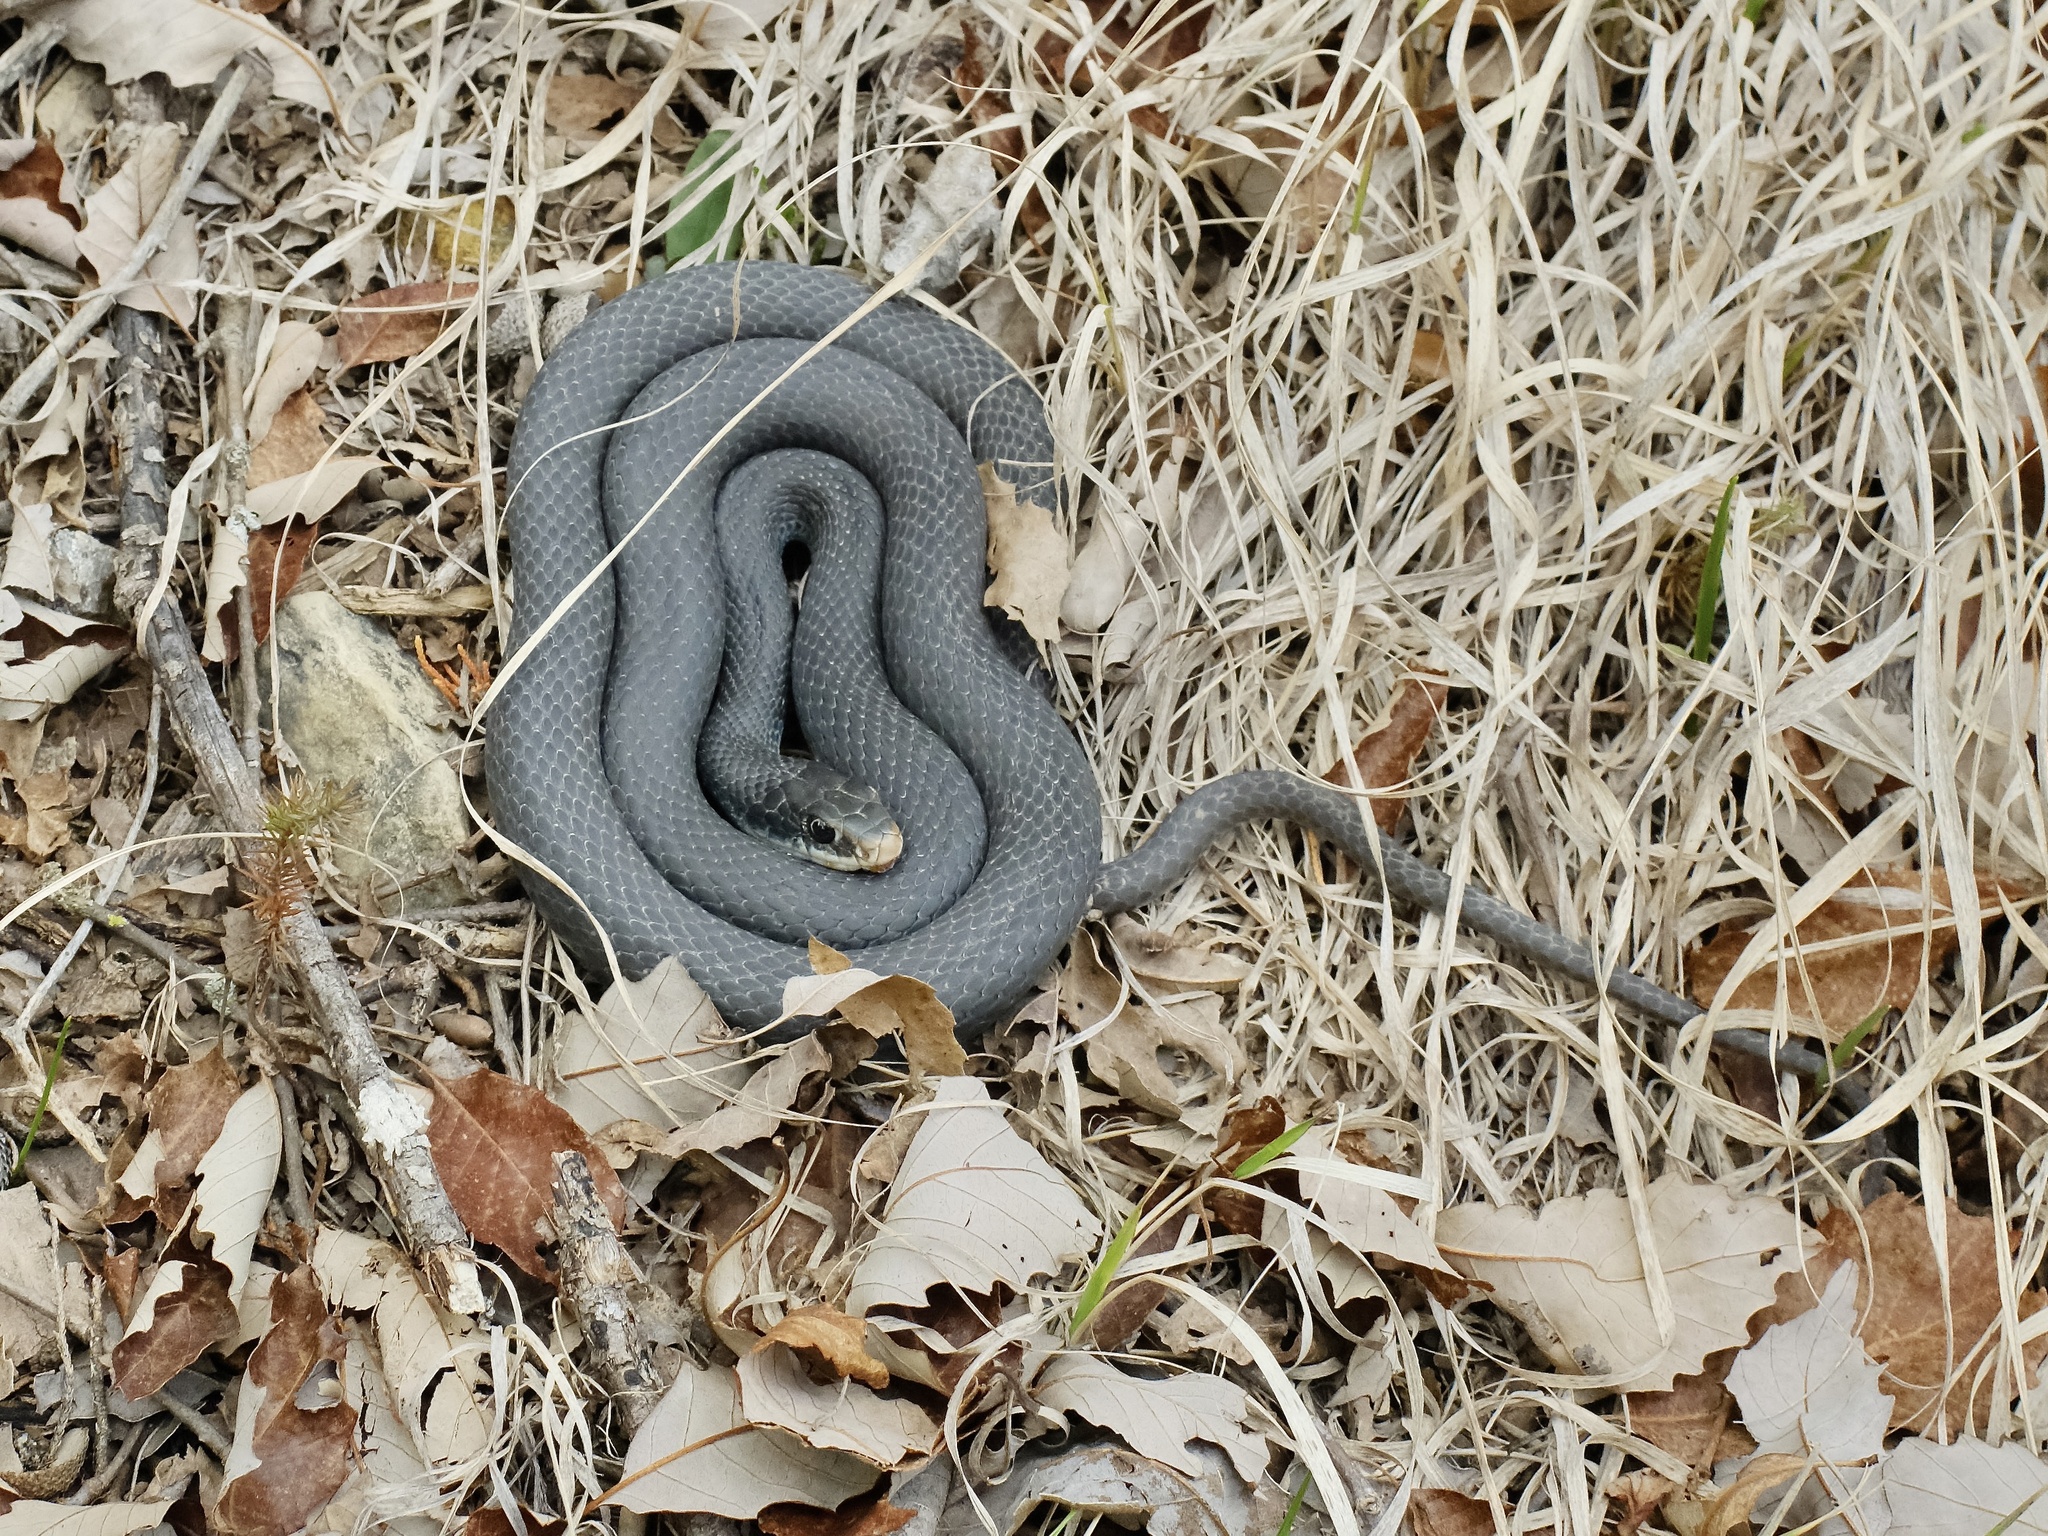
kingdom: Animalia
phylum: Chordata
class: Squamata
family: Colubridae
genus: Coluber
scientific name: Coluber constrictor
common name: Eastern racer
